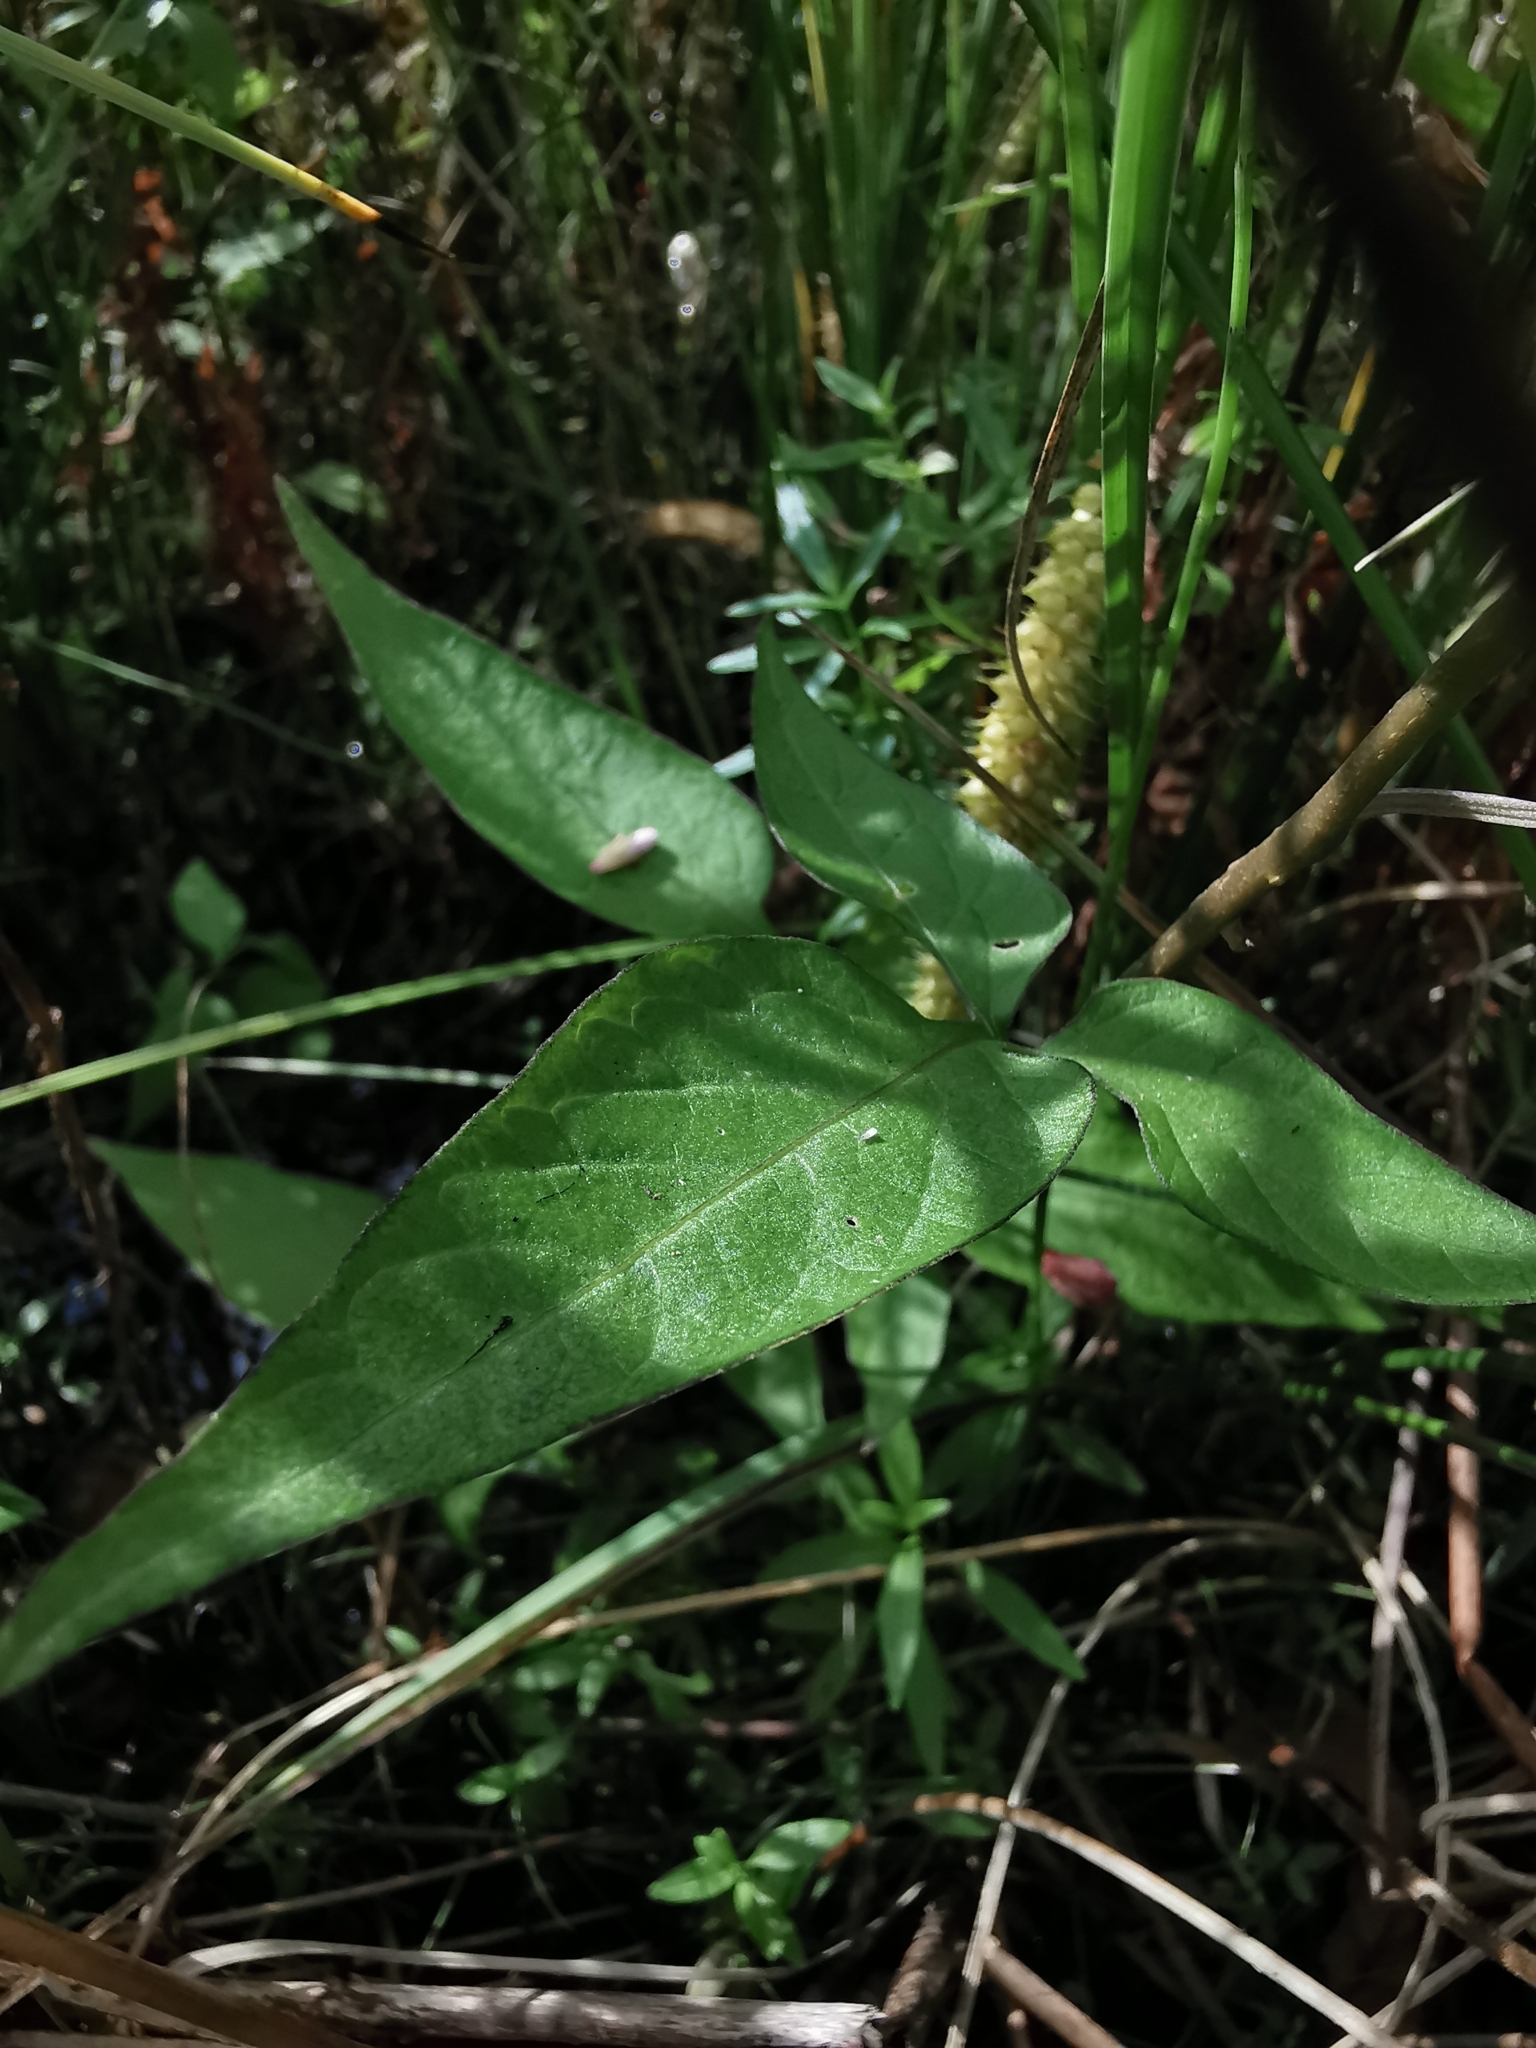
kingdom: Plantae
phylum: Tracheophyta
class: Magnoliopsida
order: Solanales
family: Solanaceae
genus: Solanum
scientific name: Solanum dulcamara
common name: Climbing nightshade
